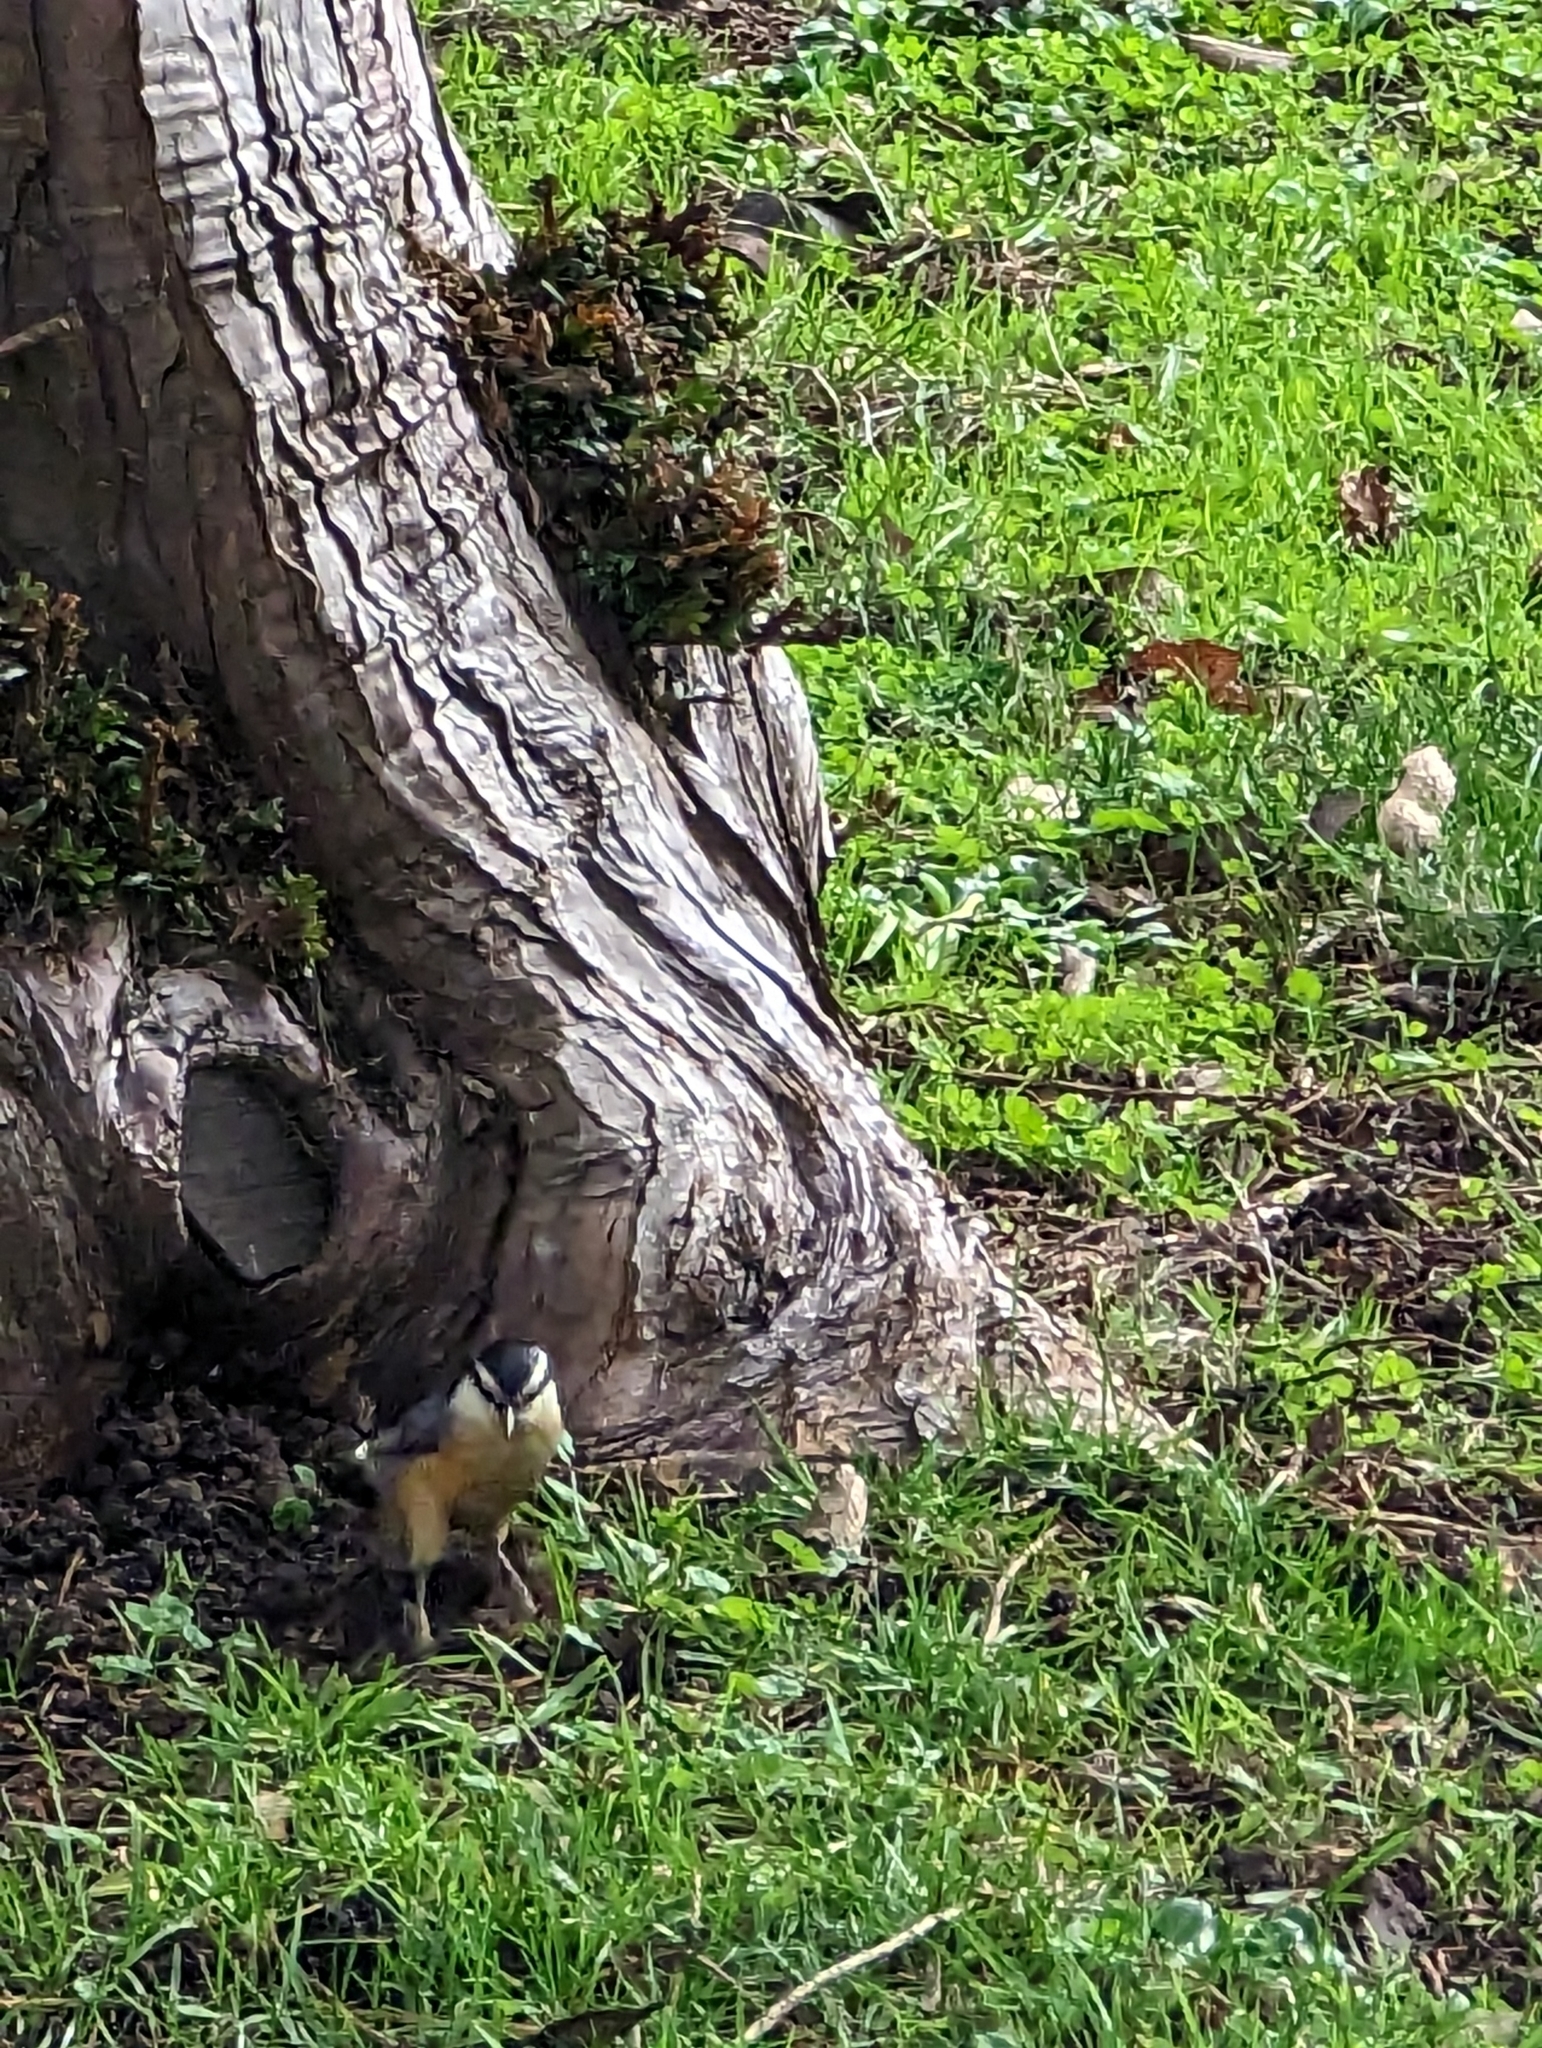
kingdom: Animalia
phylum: Chordata
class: Aves
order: Passeriformes
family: Sittidae
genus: Sitta
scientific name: Sitta canadensis
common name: Red-breasted nuthatch
